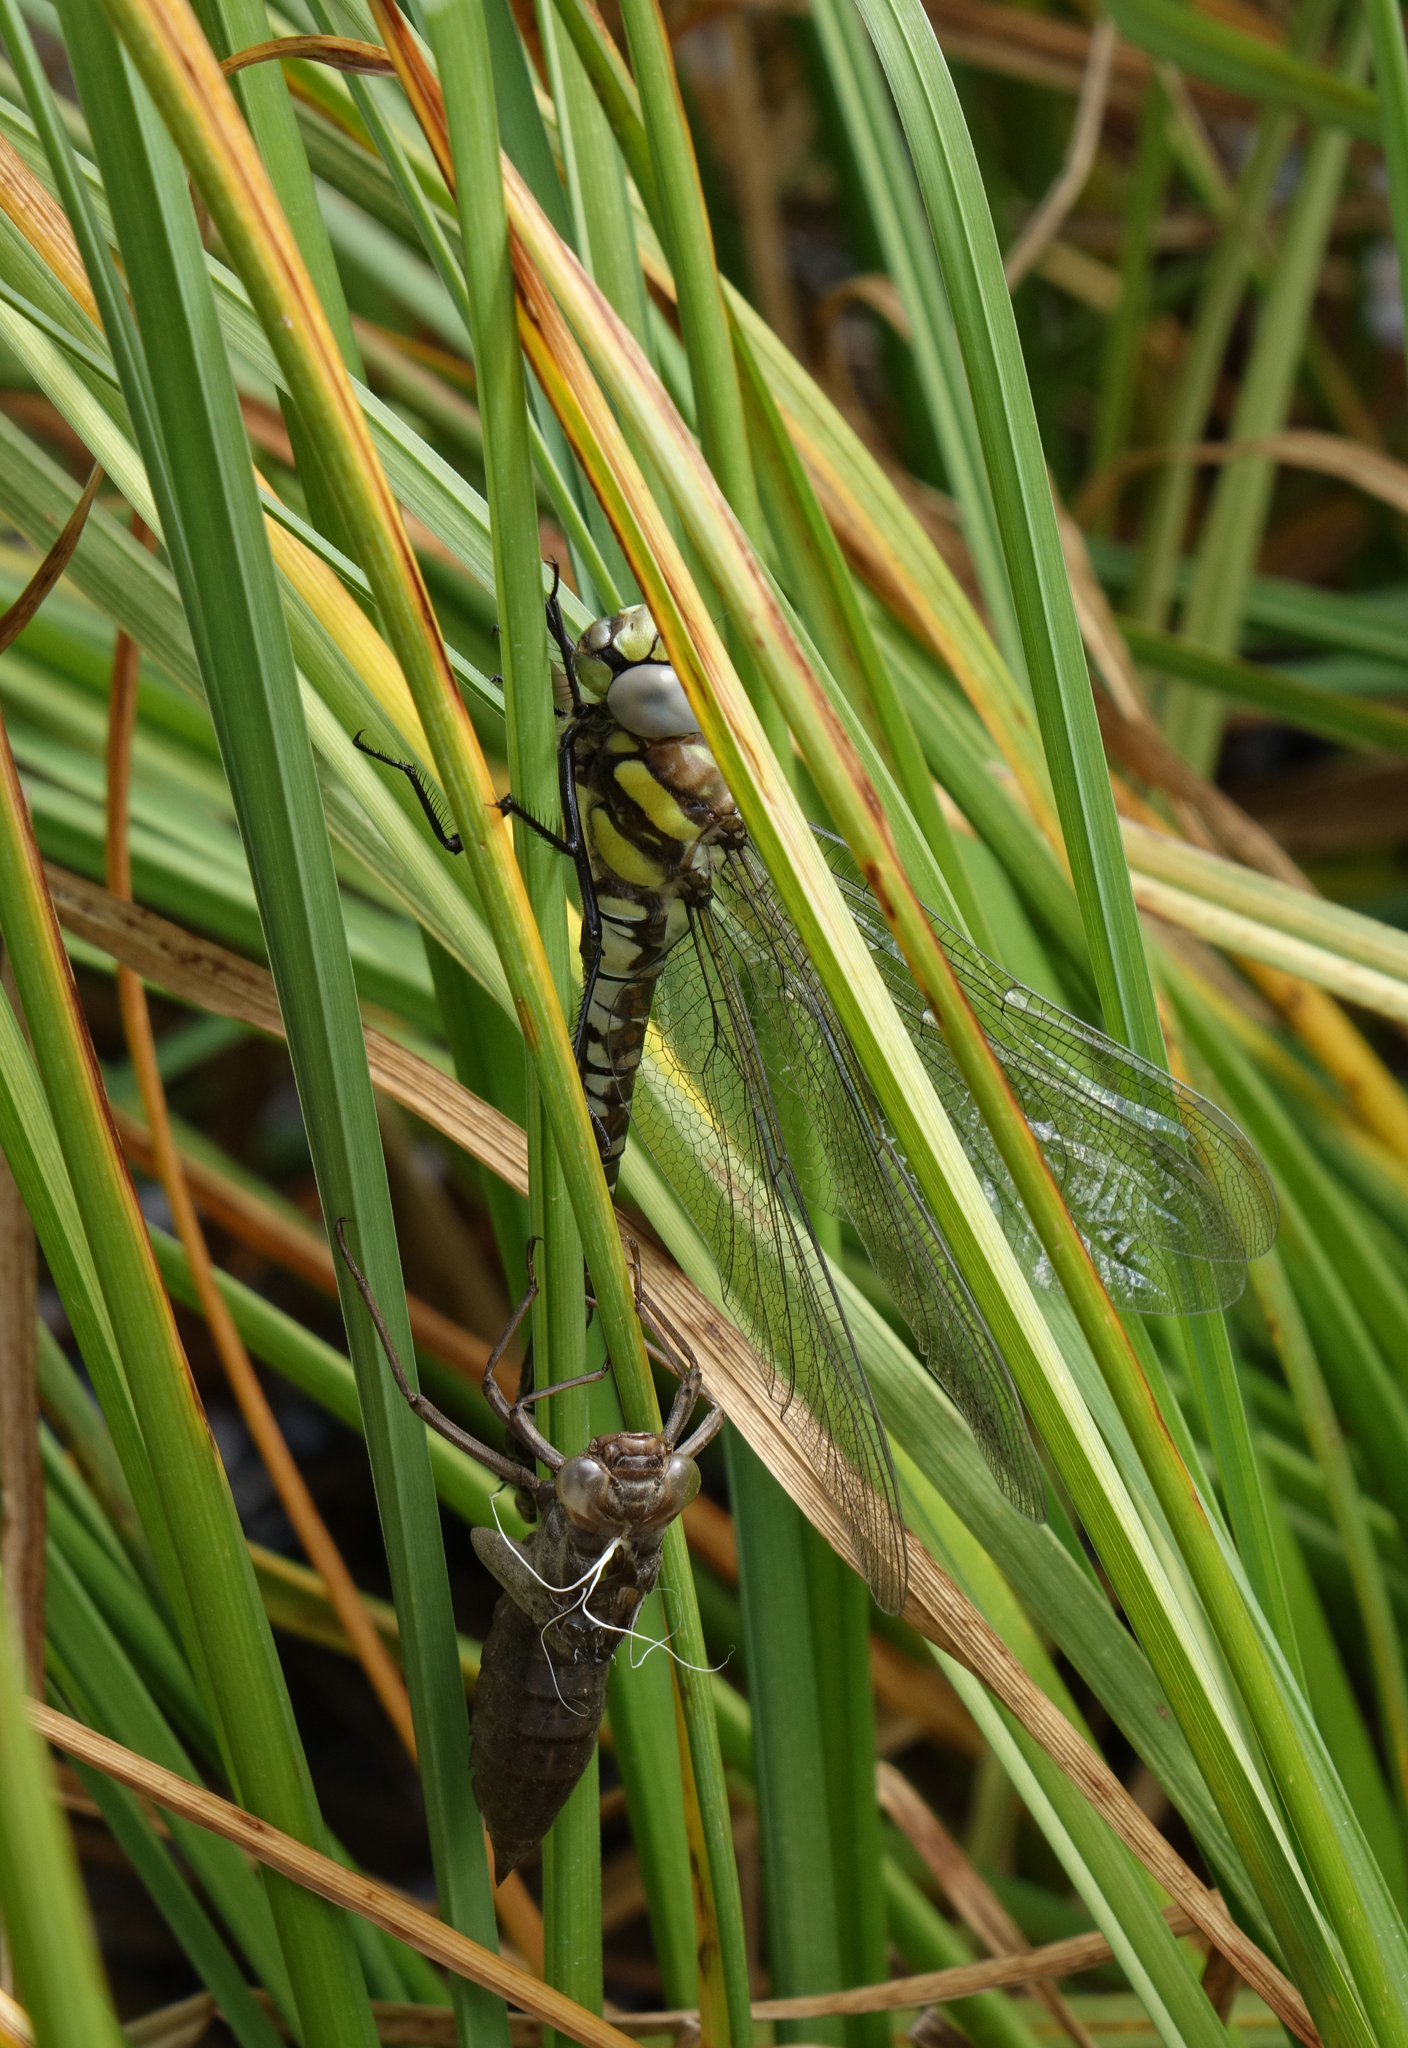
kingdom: Animalia
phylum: Arthropoda
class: Insecta
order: Odonata
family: Aeshnidae
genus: Aeshna
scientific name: Aeshna juncea
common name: Moorland hawker
